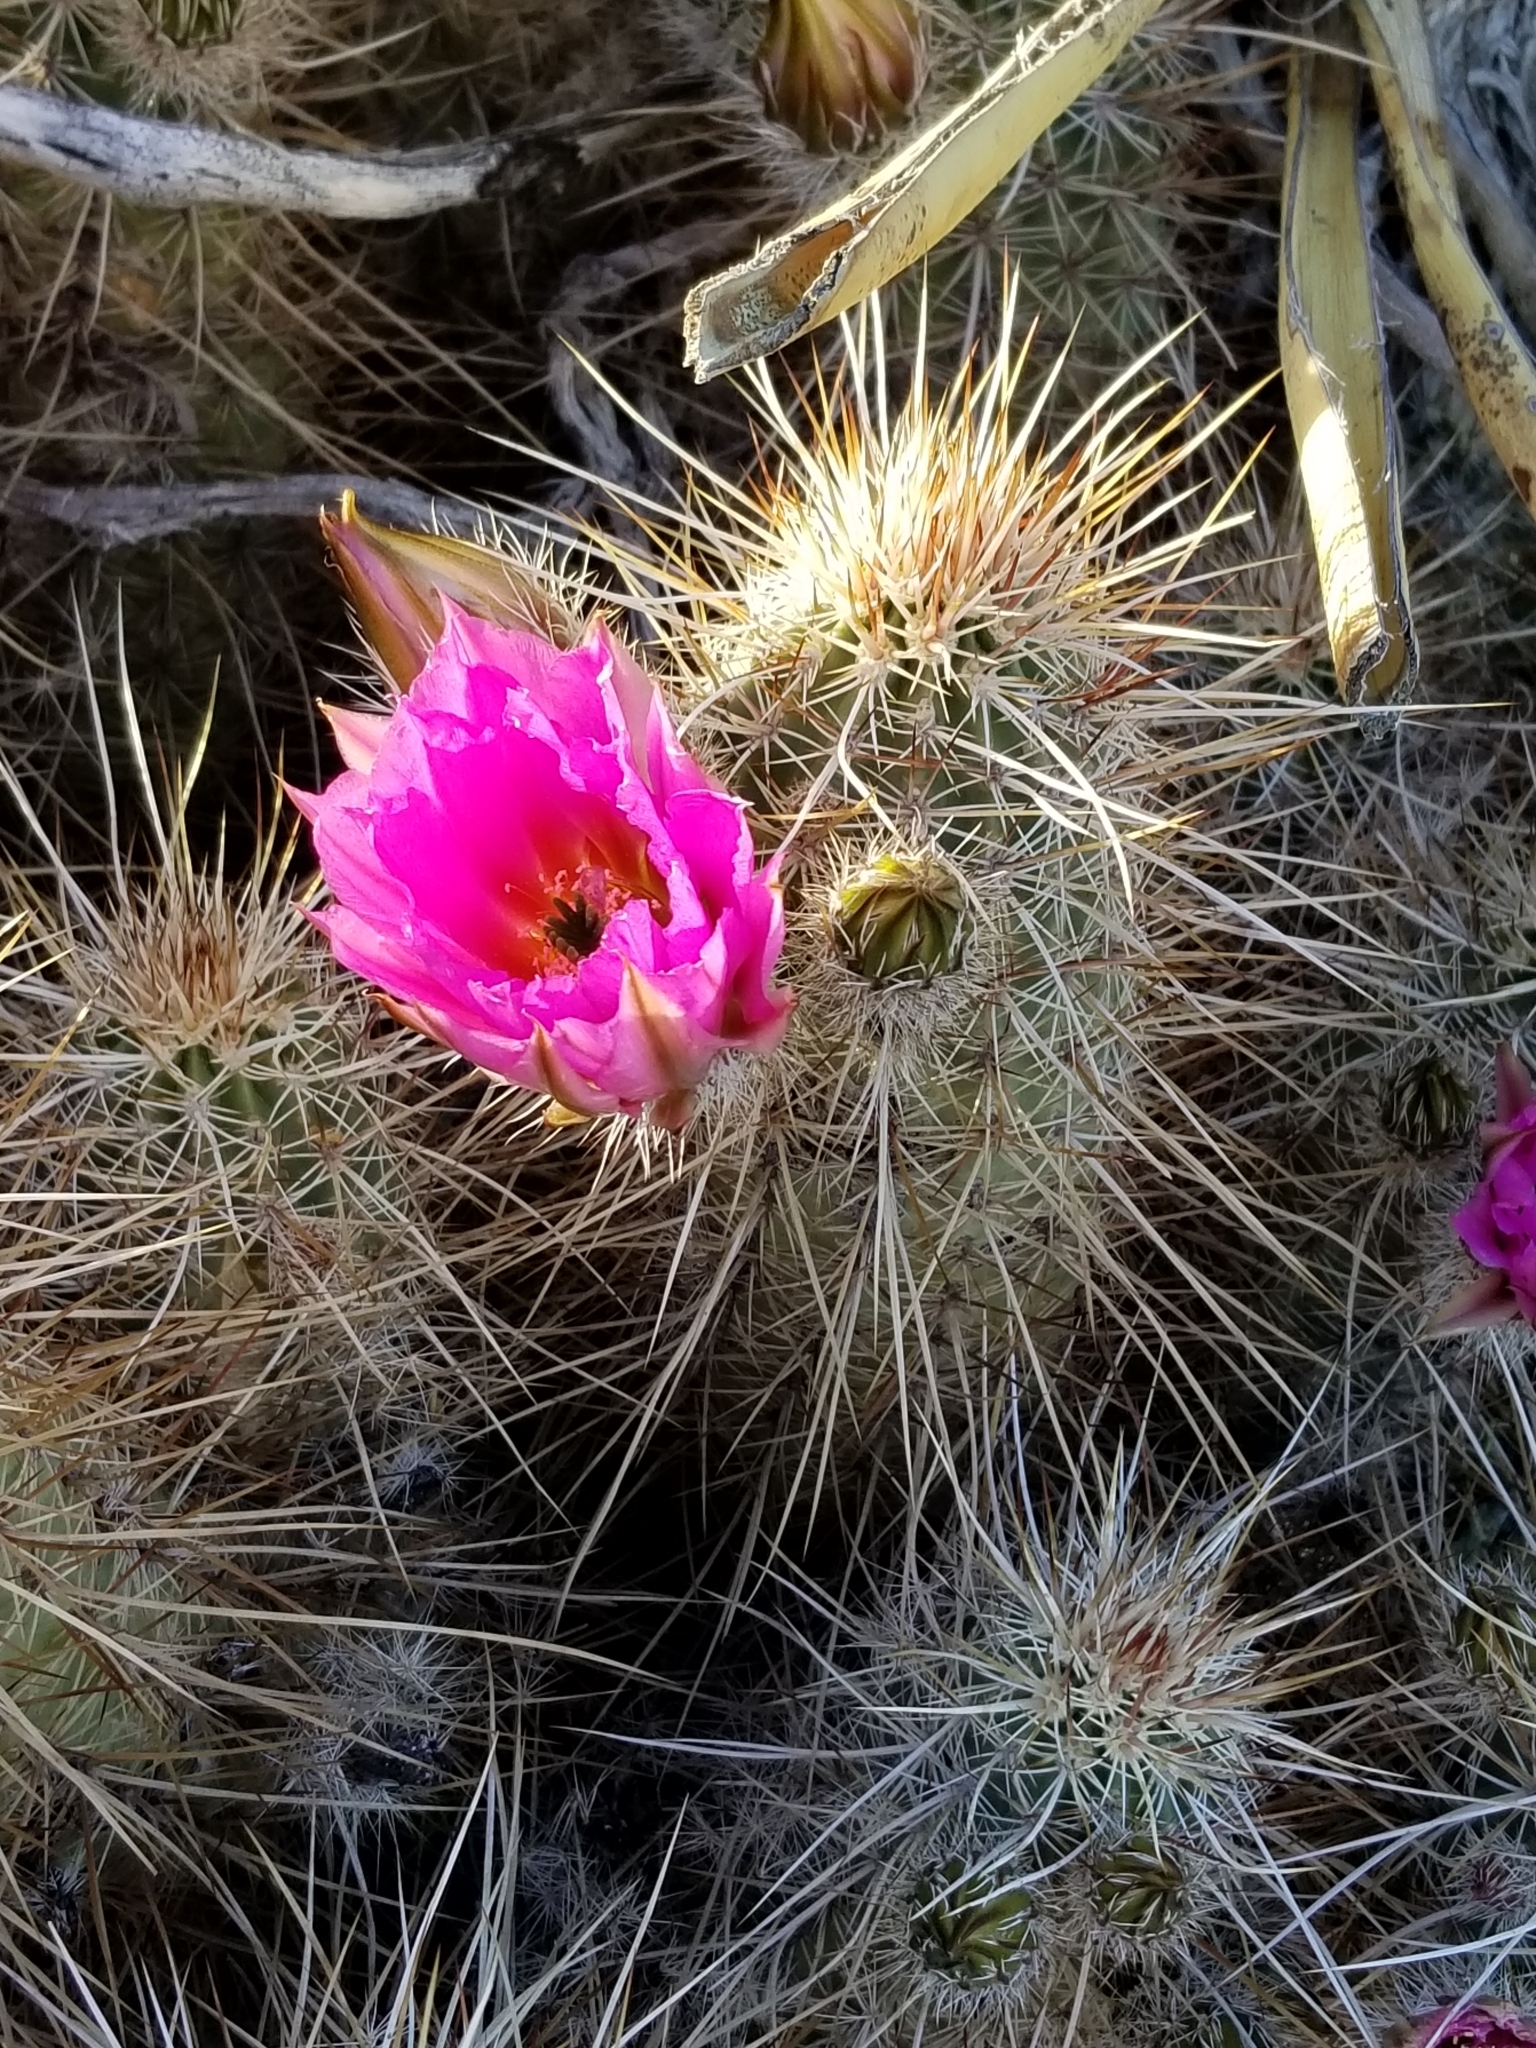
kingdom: Plantae
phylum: Tracheophyta
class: Magnoliopsida
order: Caryophyllales
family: Cactaceae
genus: Echinocereus
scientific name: Echinocereus engelmannii
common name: Engelmann's hedgehog cactus
